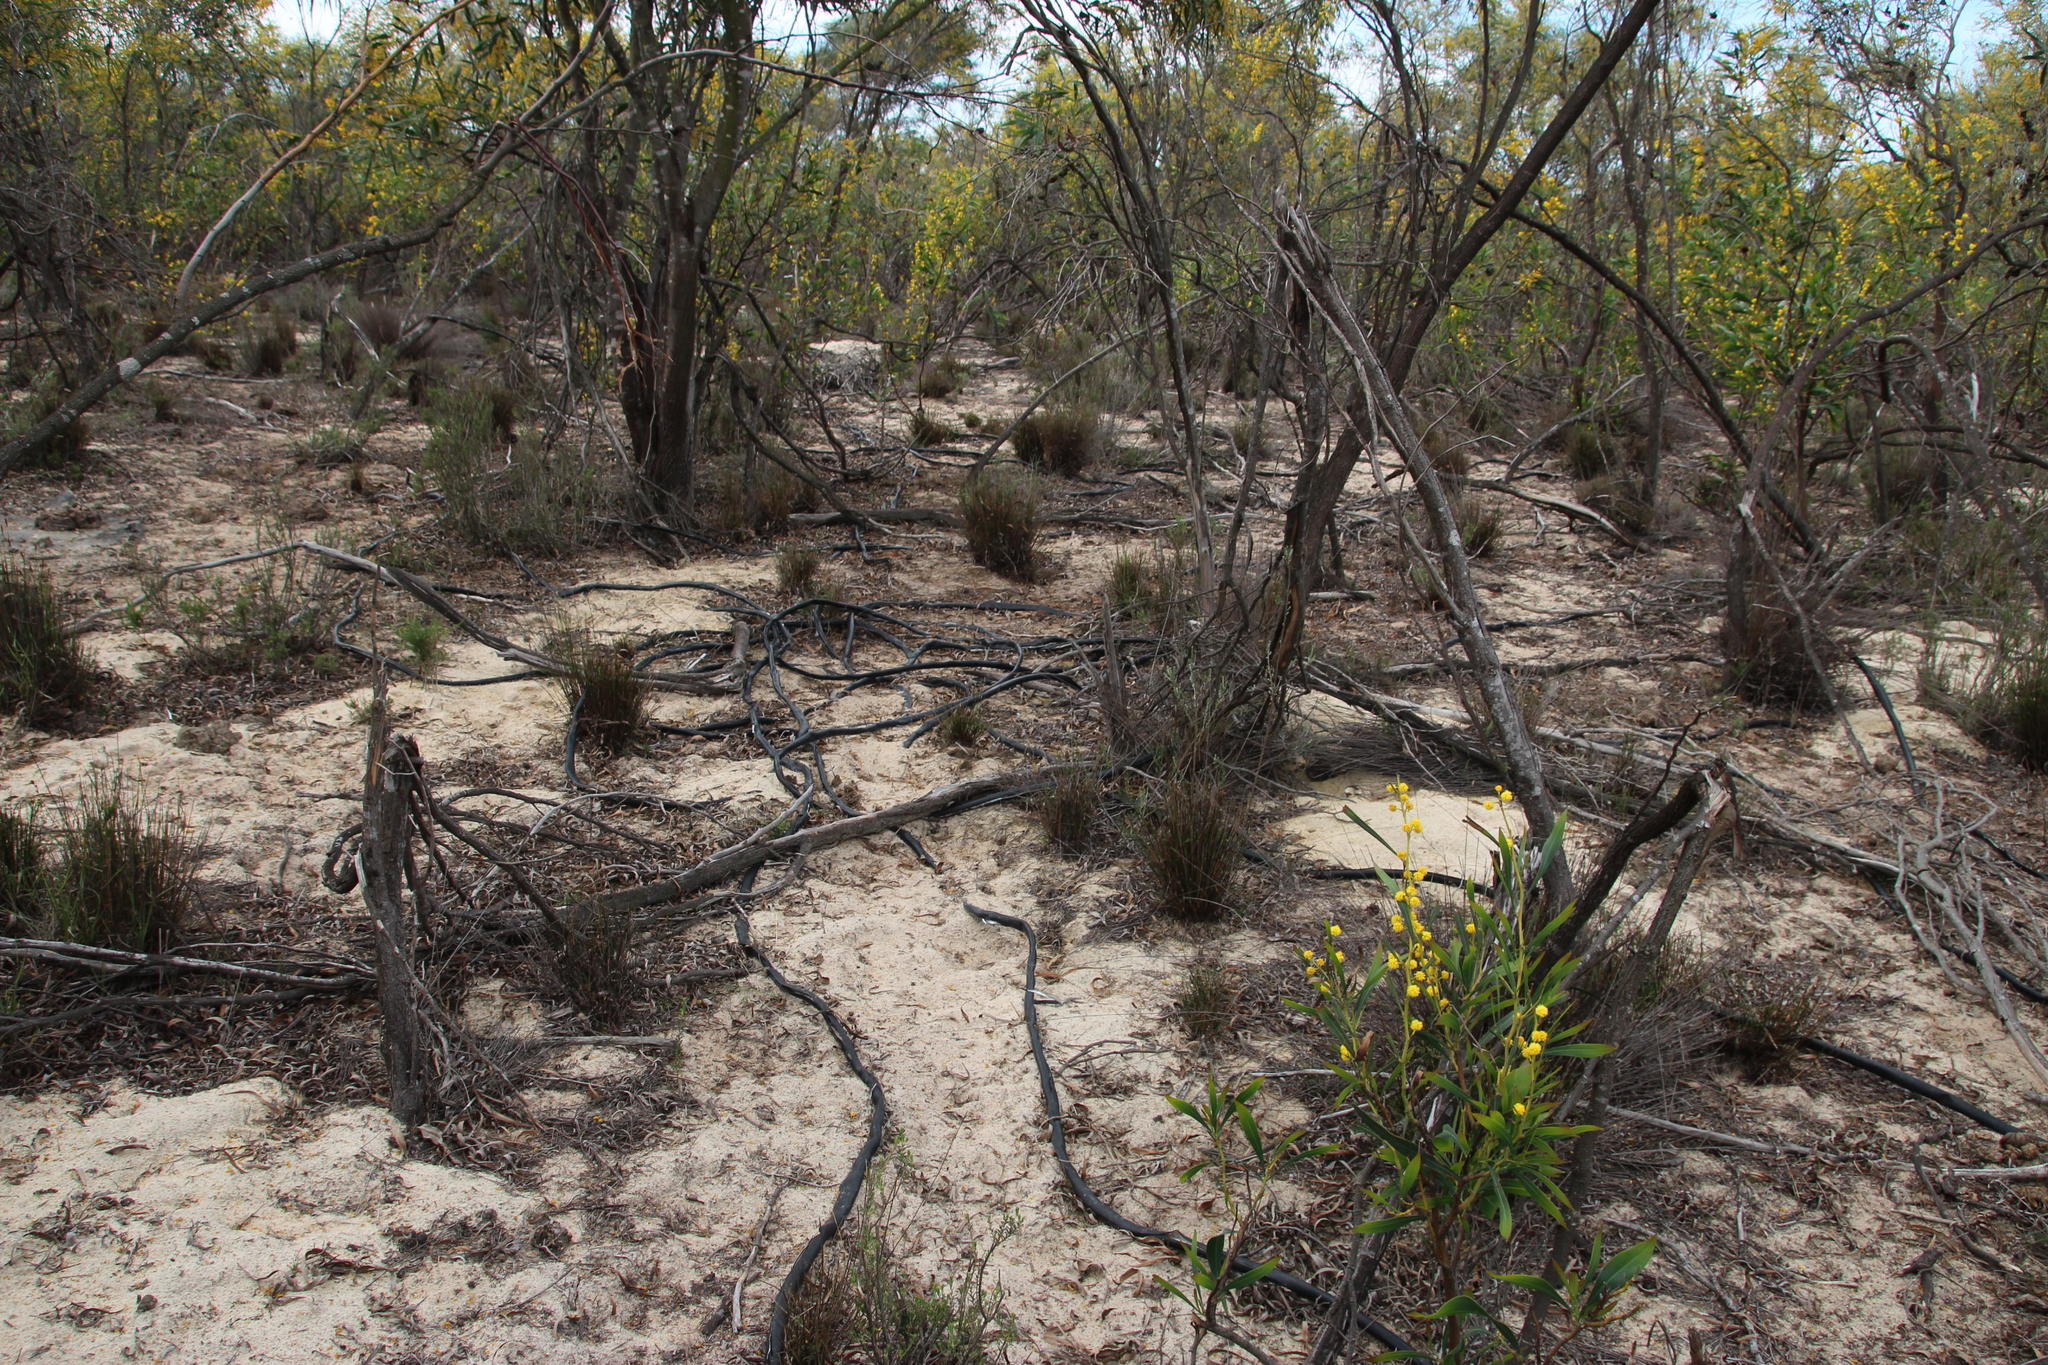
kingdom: Plantae
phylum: Tracheophyta
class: Magnoliopsida
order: Fabales
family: Fabaceae
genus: Acacia
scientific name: Acacia saligna
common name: Orange wattle
